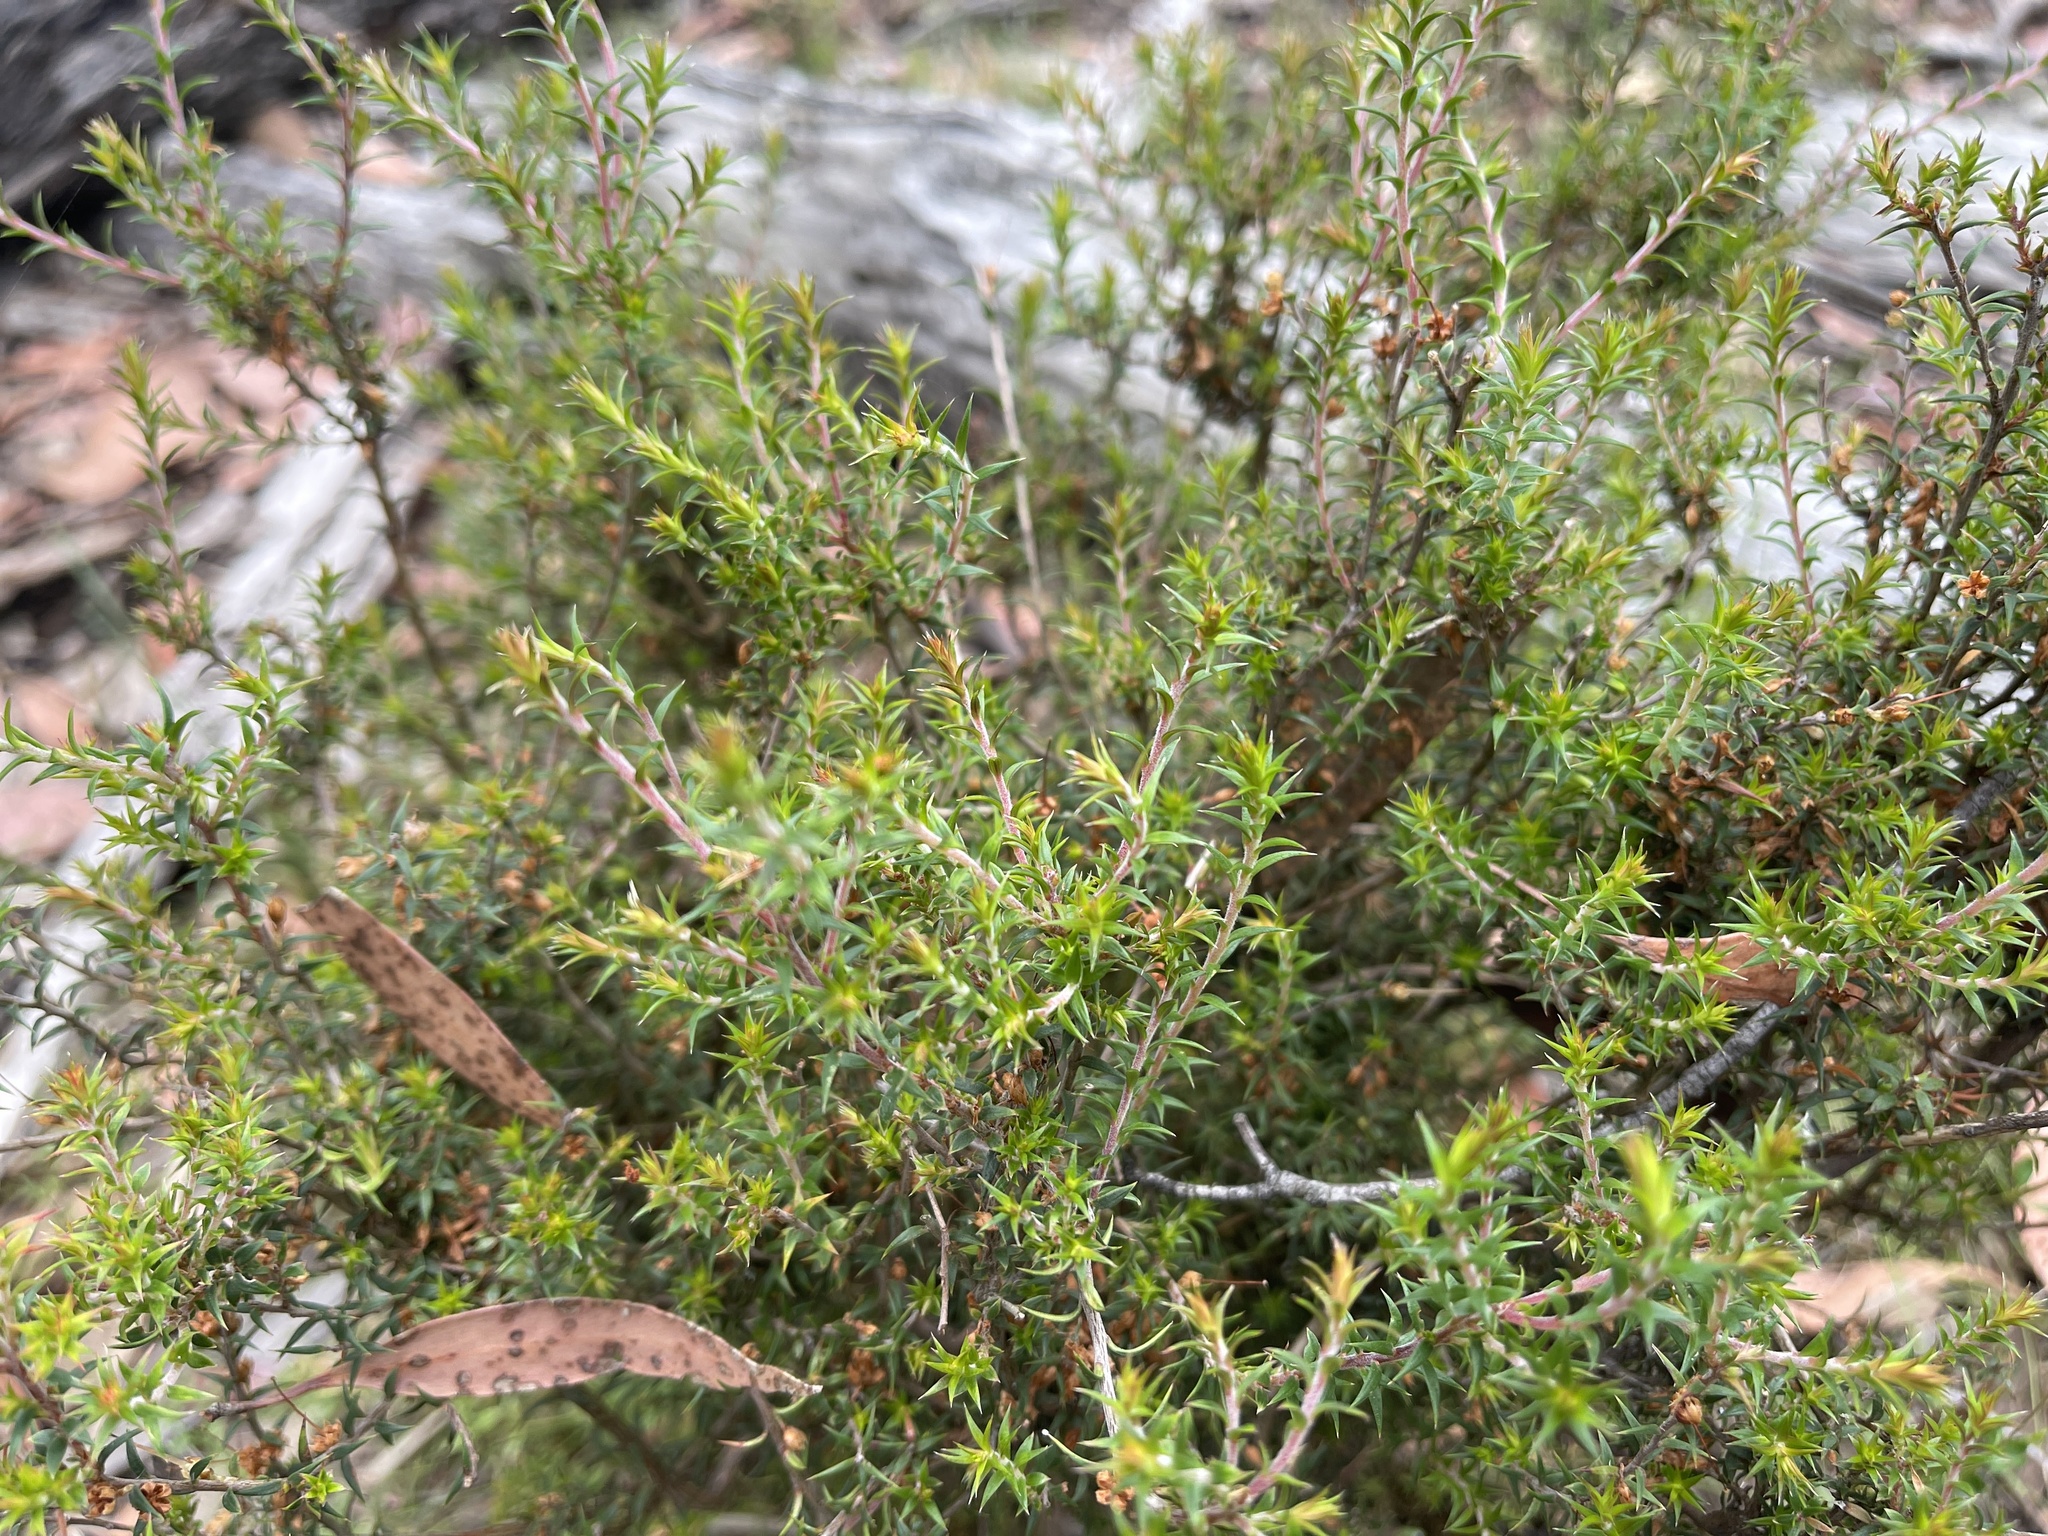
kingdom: Plantae
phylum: Tracheophyta
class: Magnoliopsida
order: Myrtales
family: Myrtaceae
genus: Leptospermum
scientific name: Leptospermum continentale
